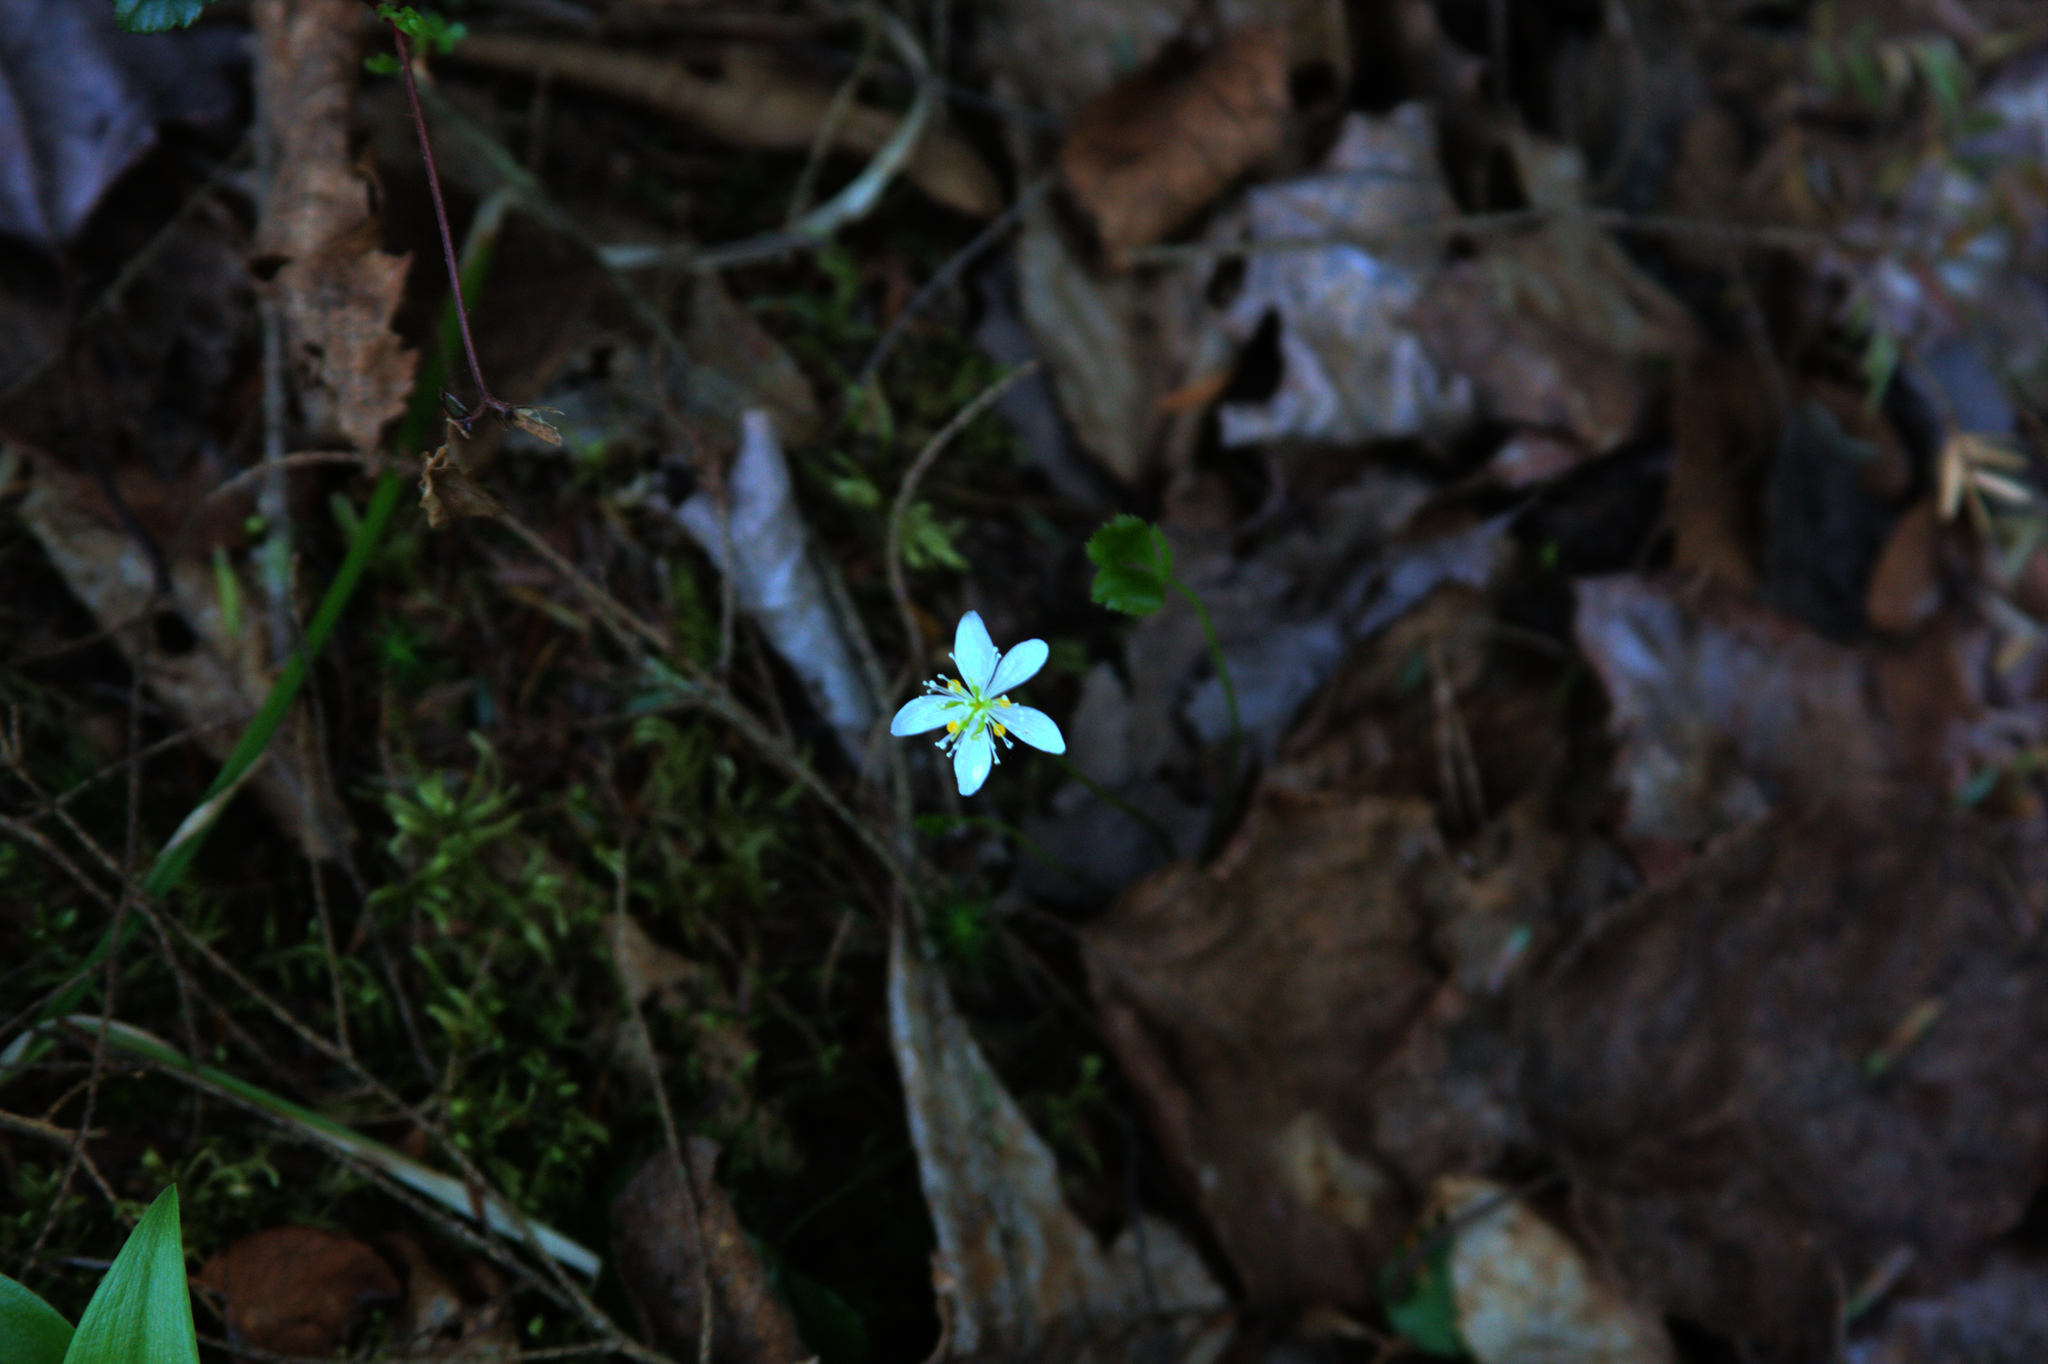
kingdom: Plantae
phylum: Tracheophyta
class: Magnoliopsida
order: Ranunculales
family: Ranunculaceae
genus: Coptis
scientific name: Coptis trifolia
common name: Canker-root
